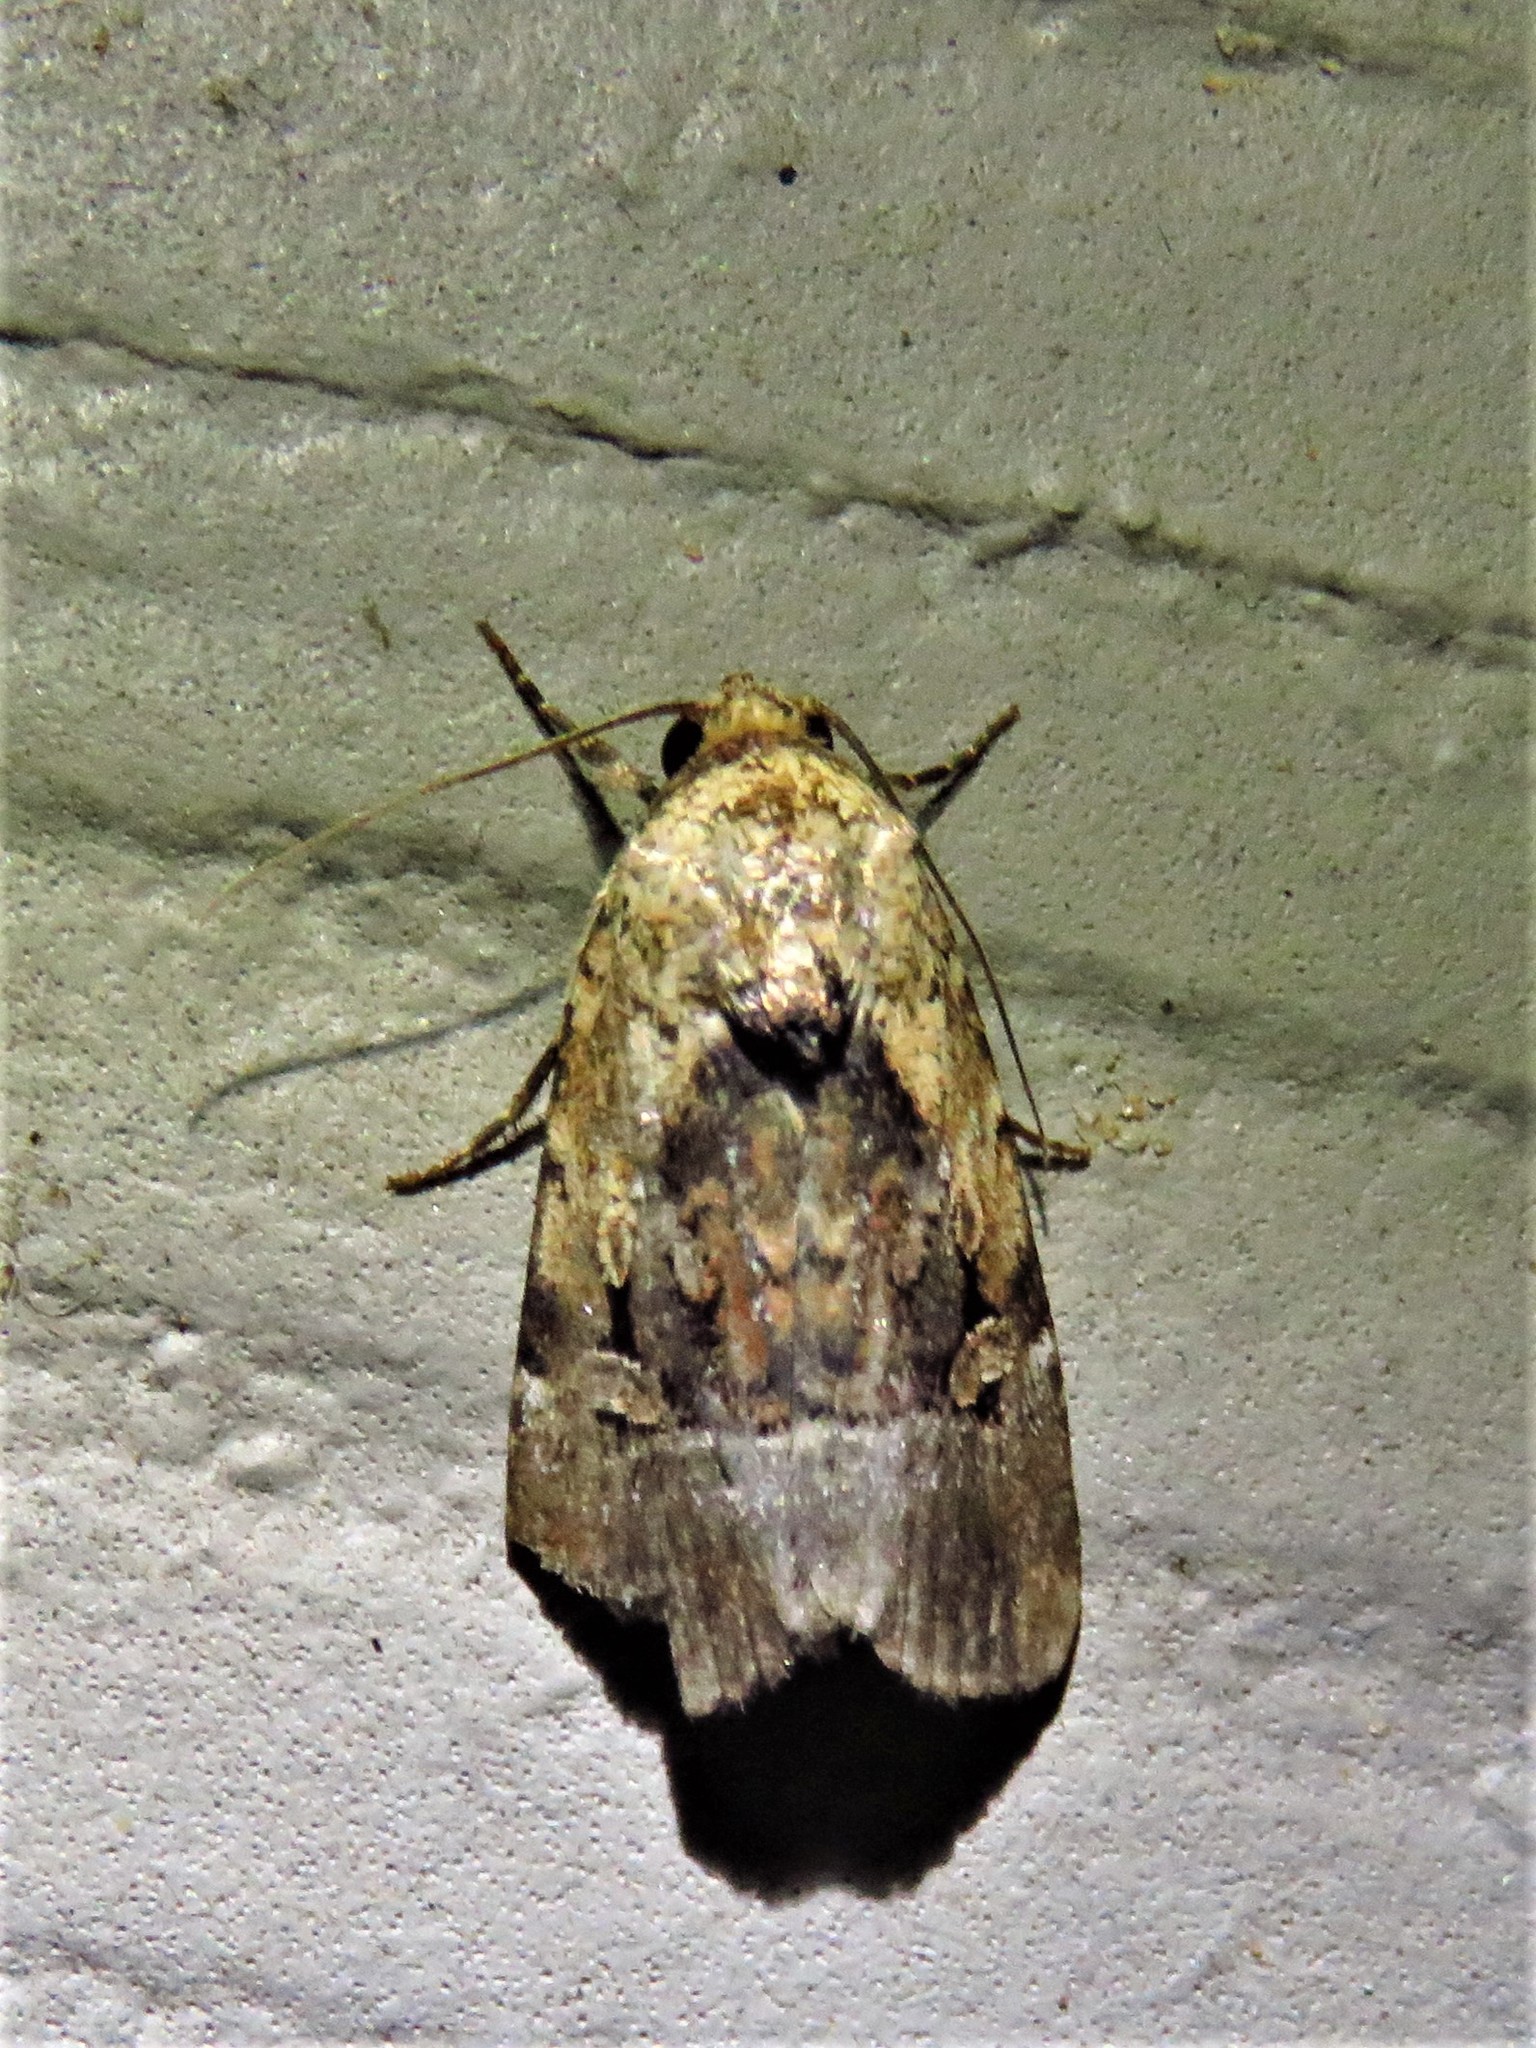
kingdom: Animalia
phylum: Arthropoda
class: Insecta
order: Lepidoptera
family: Noctuidae
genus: Elaphria
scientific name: Elaphria chalcedonia
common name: Chalcedony midget
